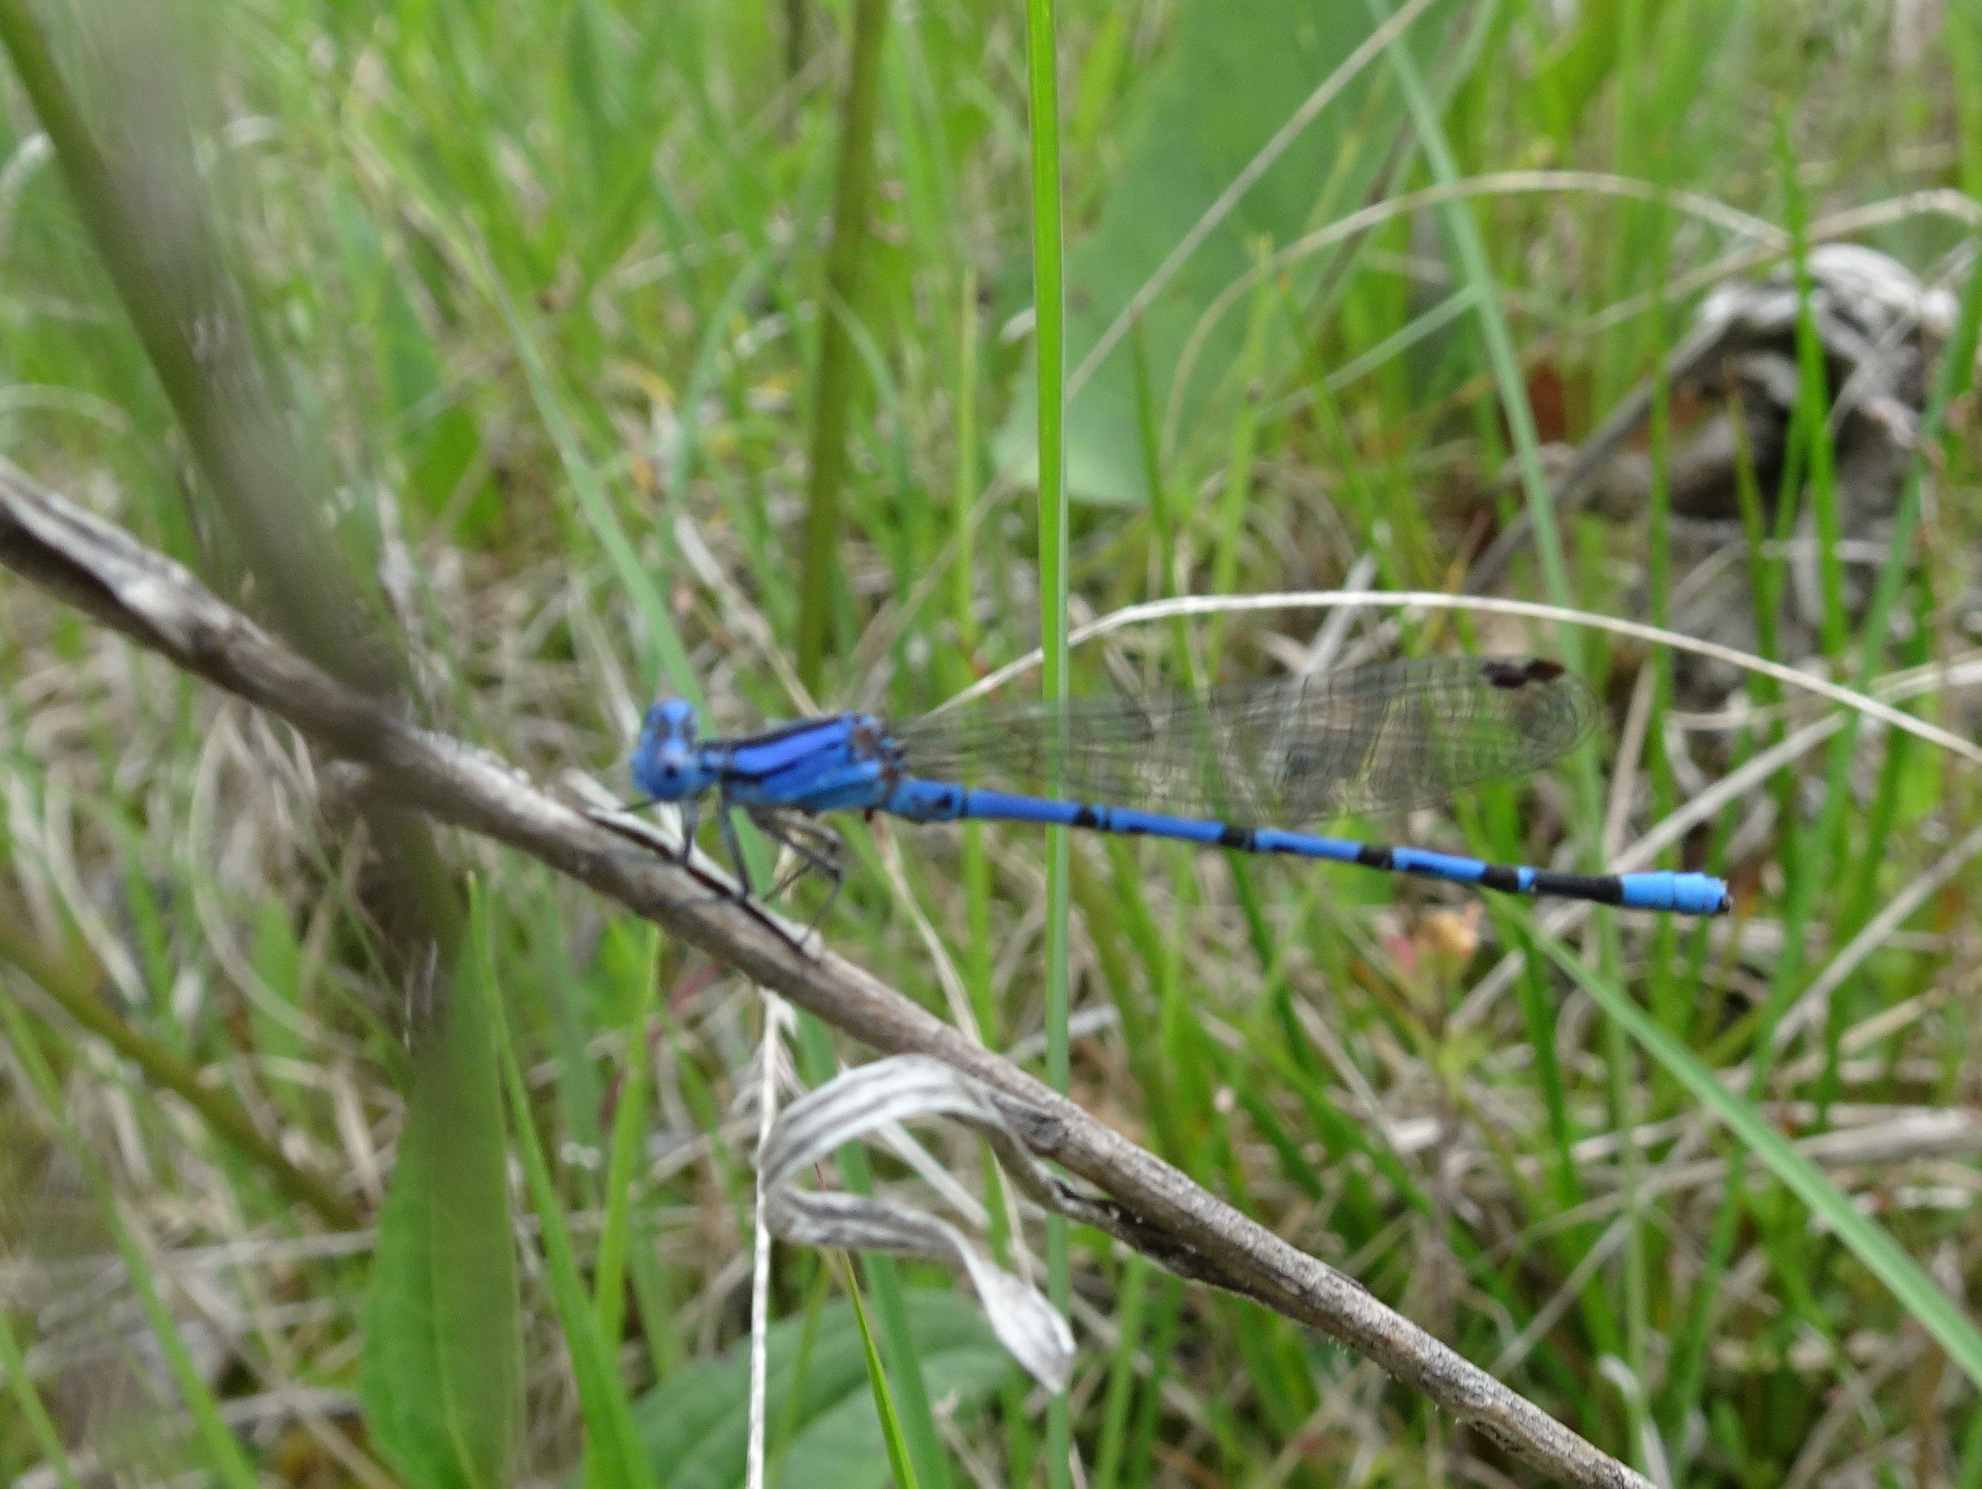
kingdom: Animalia
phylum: Arthropoda
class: Insecta
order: Odonata
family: Coenagrionidae
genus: Argia
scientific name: Argia funebris
